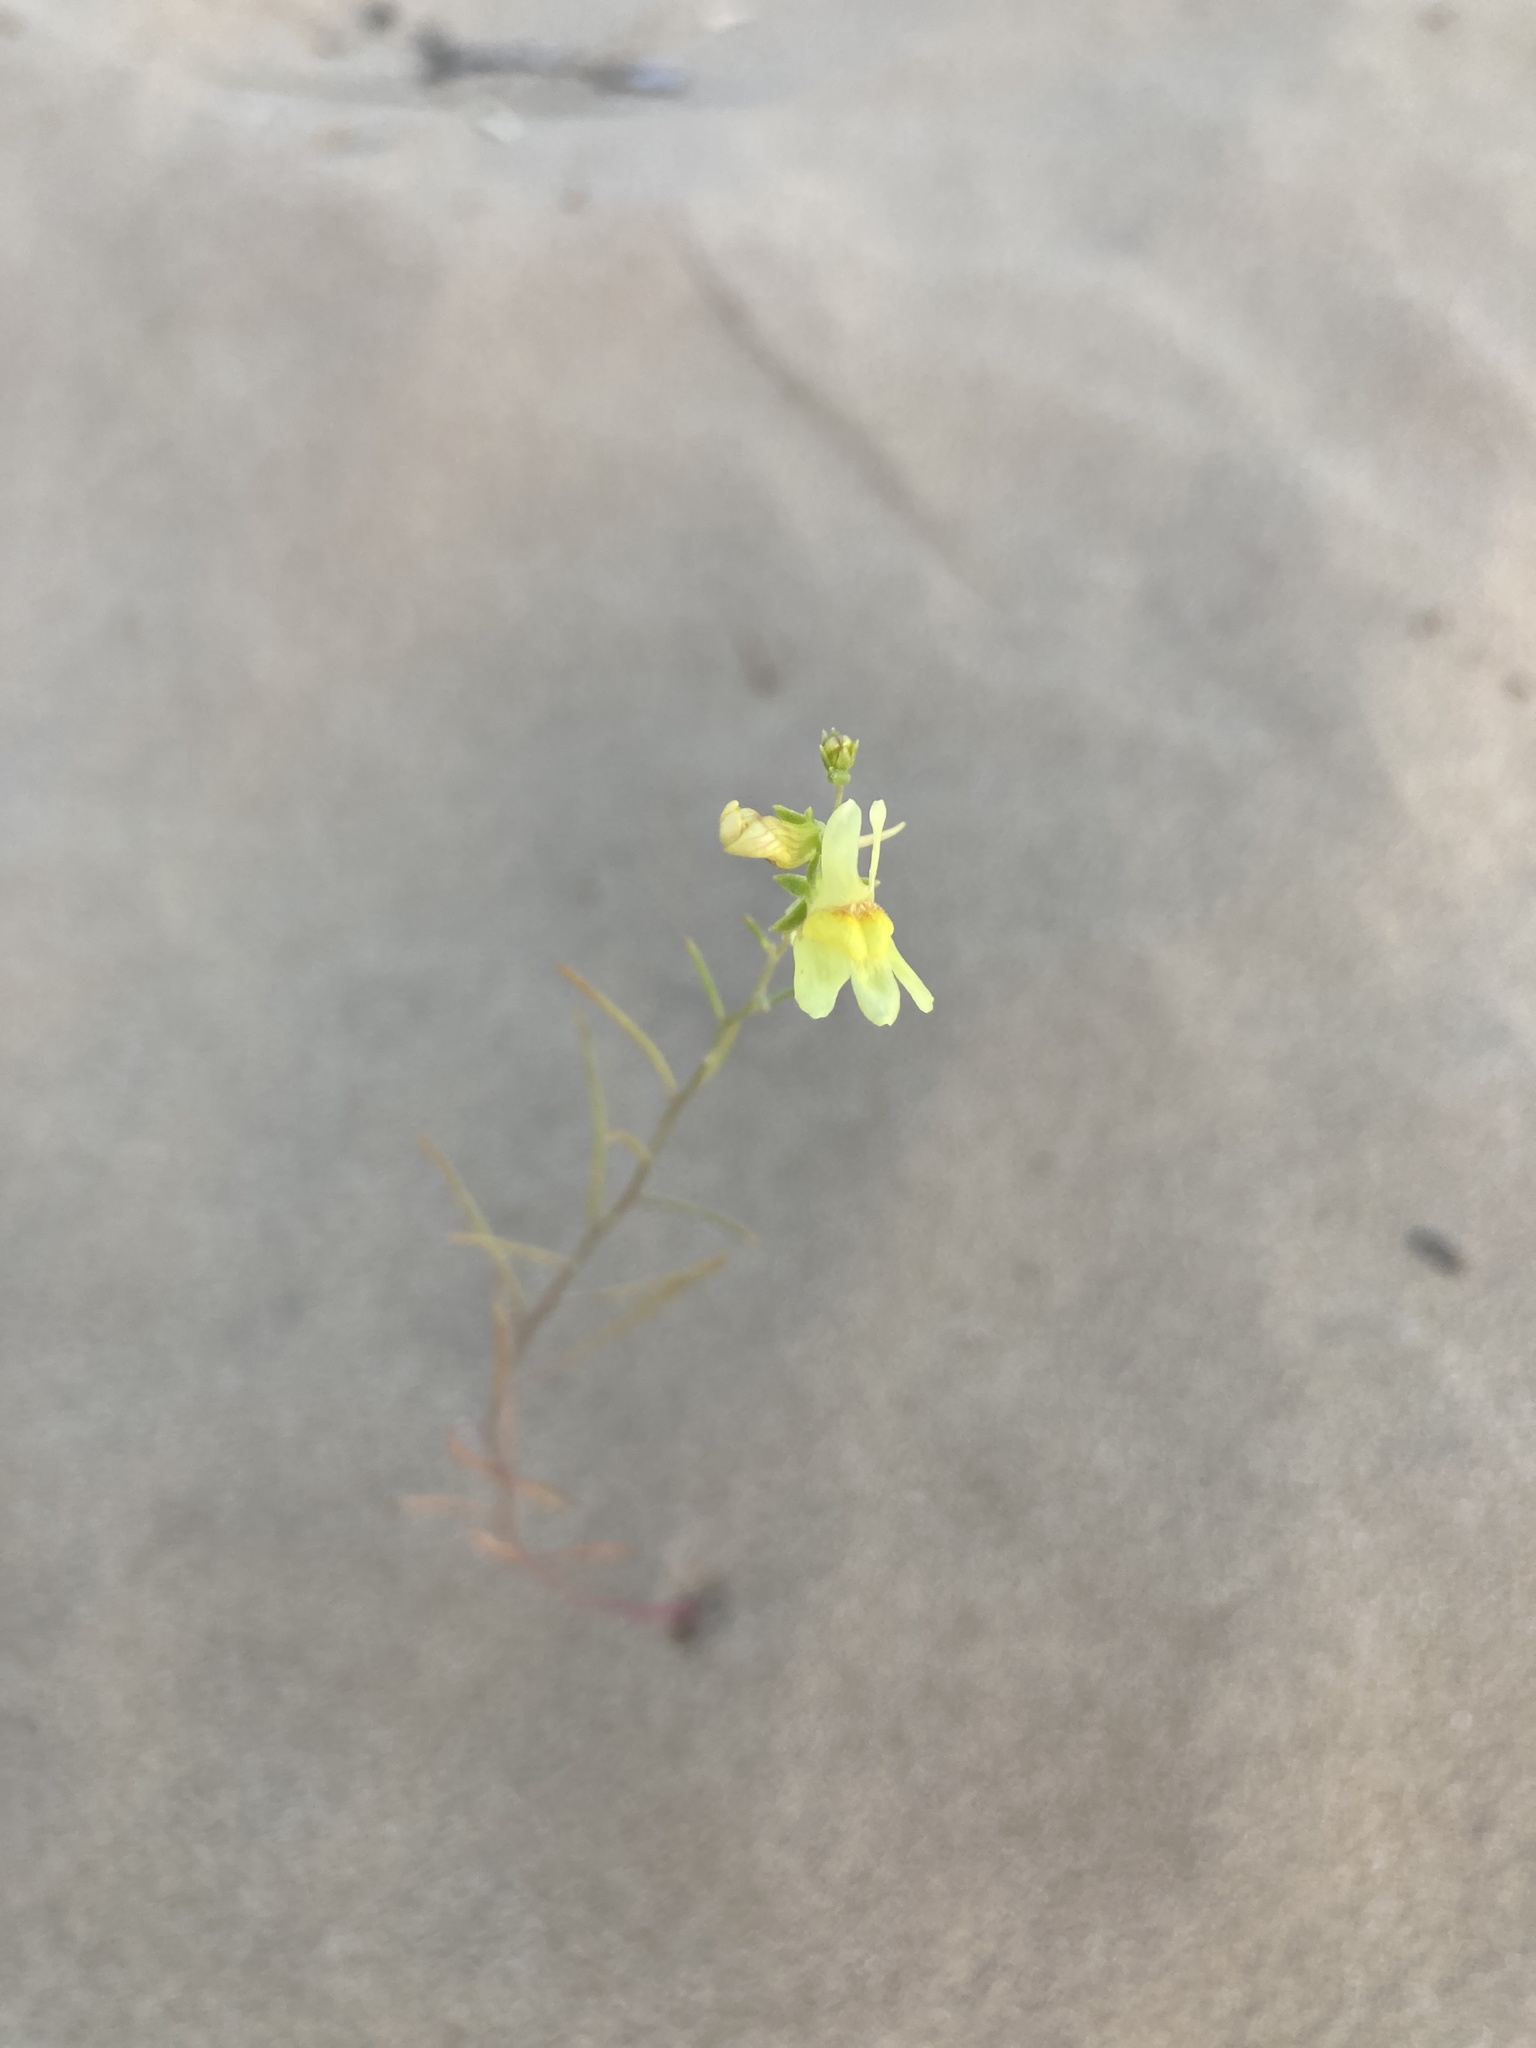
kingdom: Plantae
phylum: Tracheophyta
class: Magnoliopsida
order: Lamiales
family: Plantaginaceae
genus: Linaria
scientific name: Linaria vulgaris
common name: Butter and eggs
